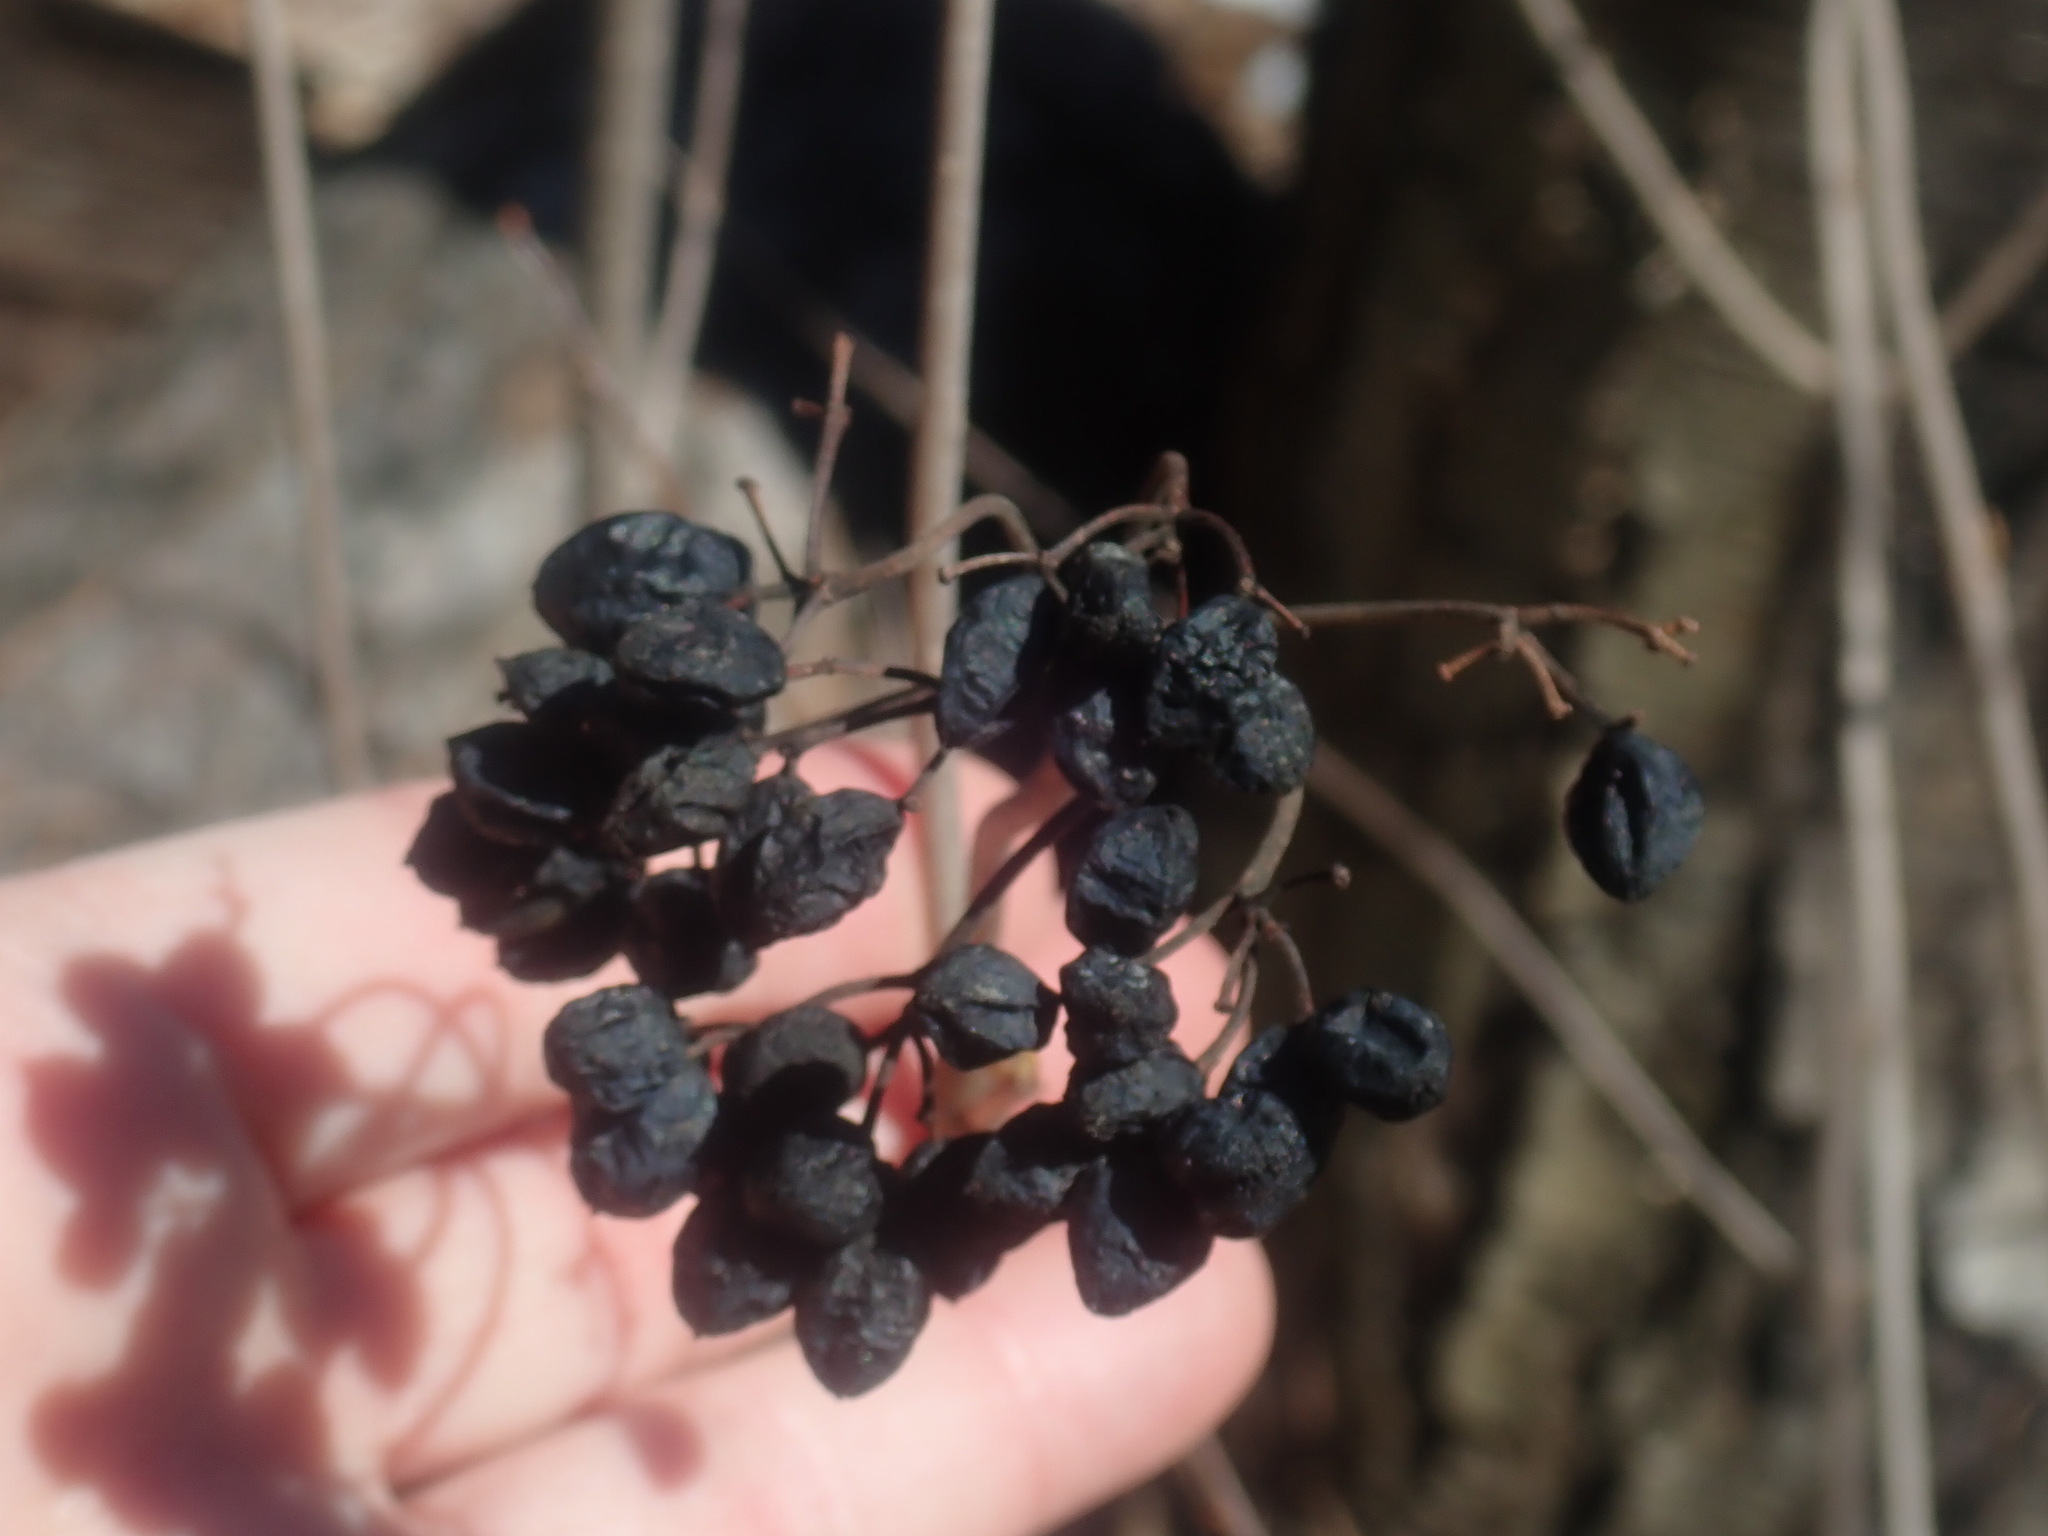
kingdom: Plantae
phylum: Tracheophyta
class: Magnoliopsida
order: Dipsacales
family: Viburnaceae
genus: Viburnum
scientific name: Viburnum acerifolium
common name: Dockmackie
